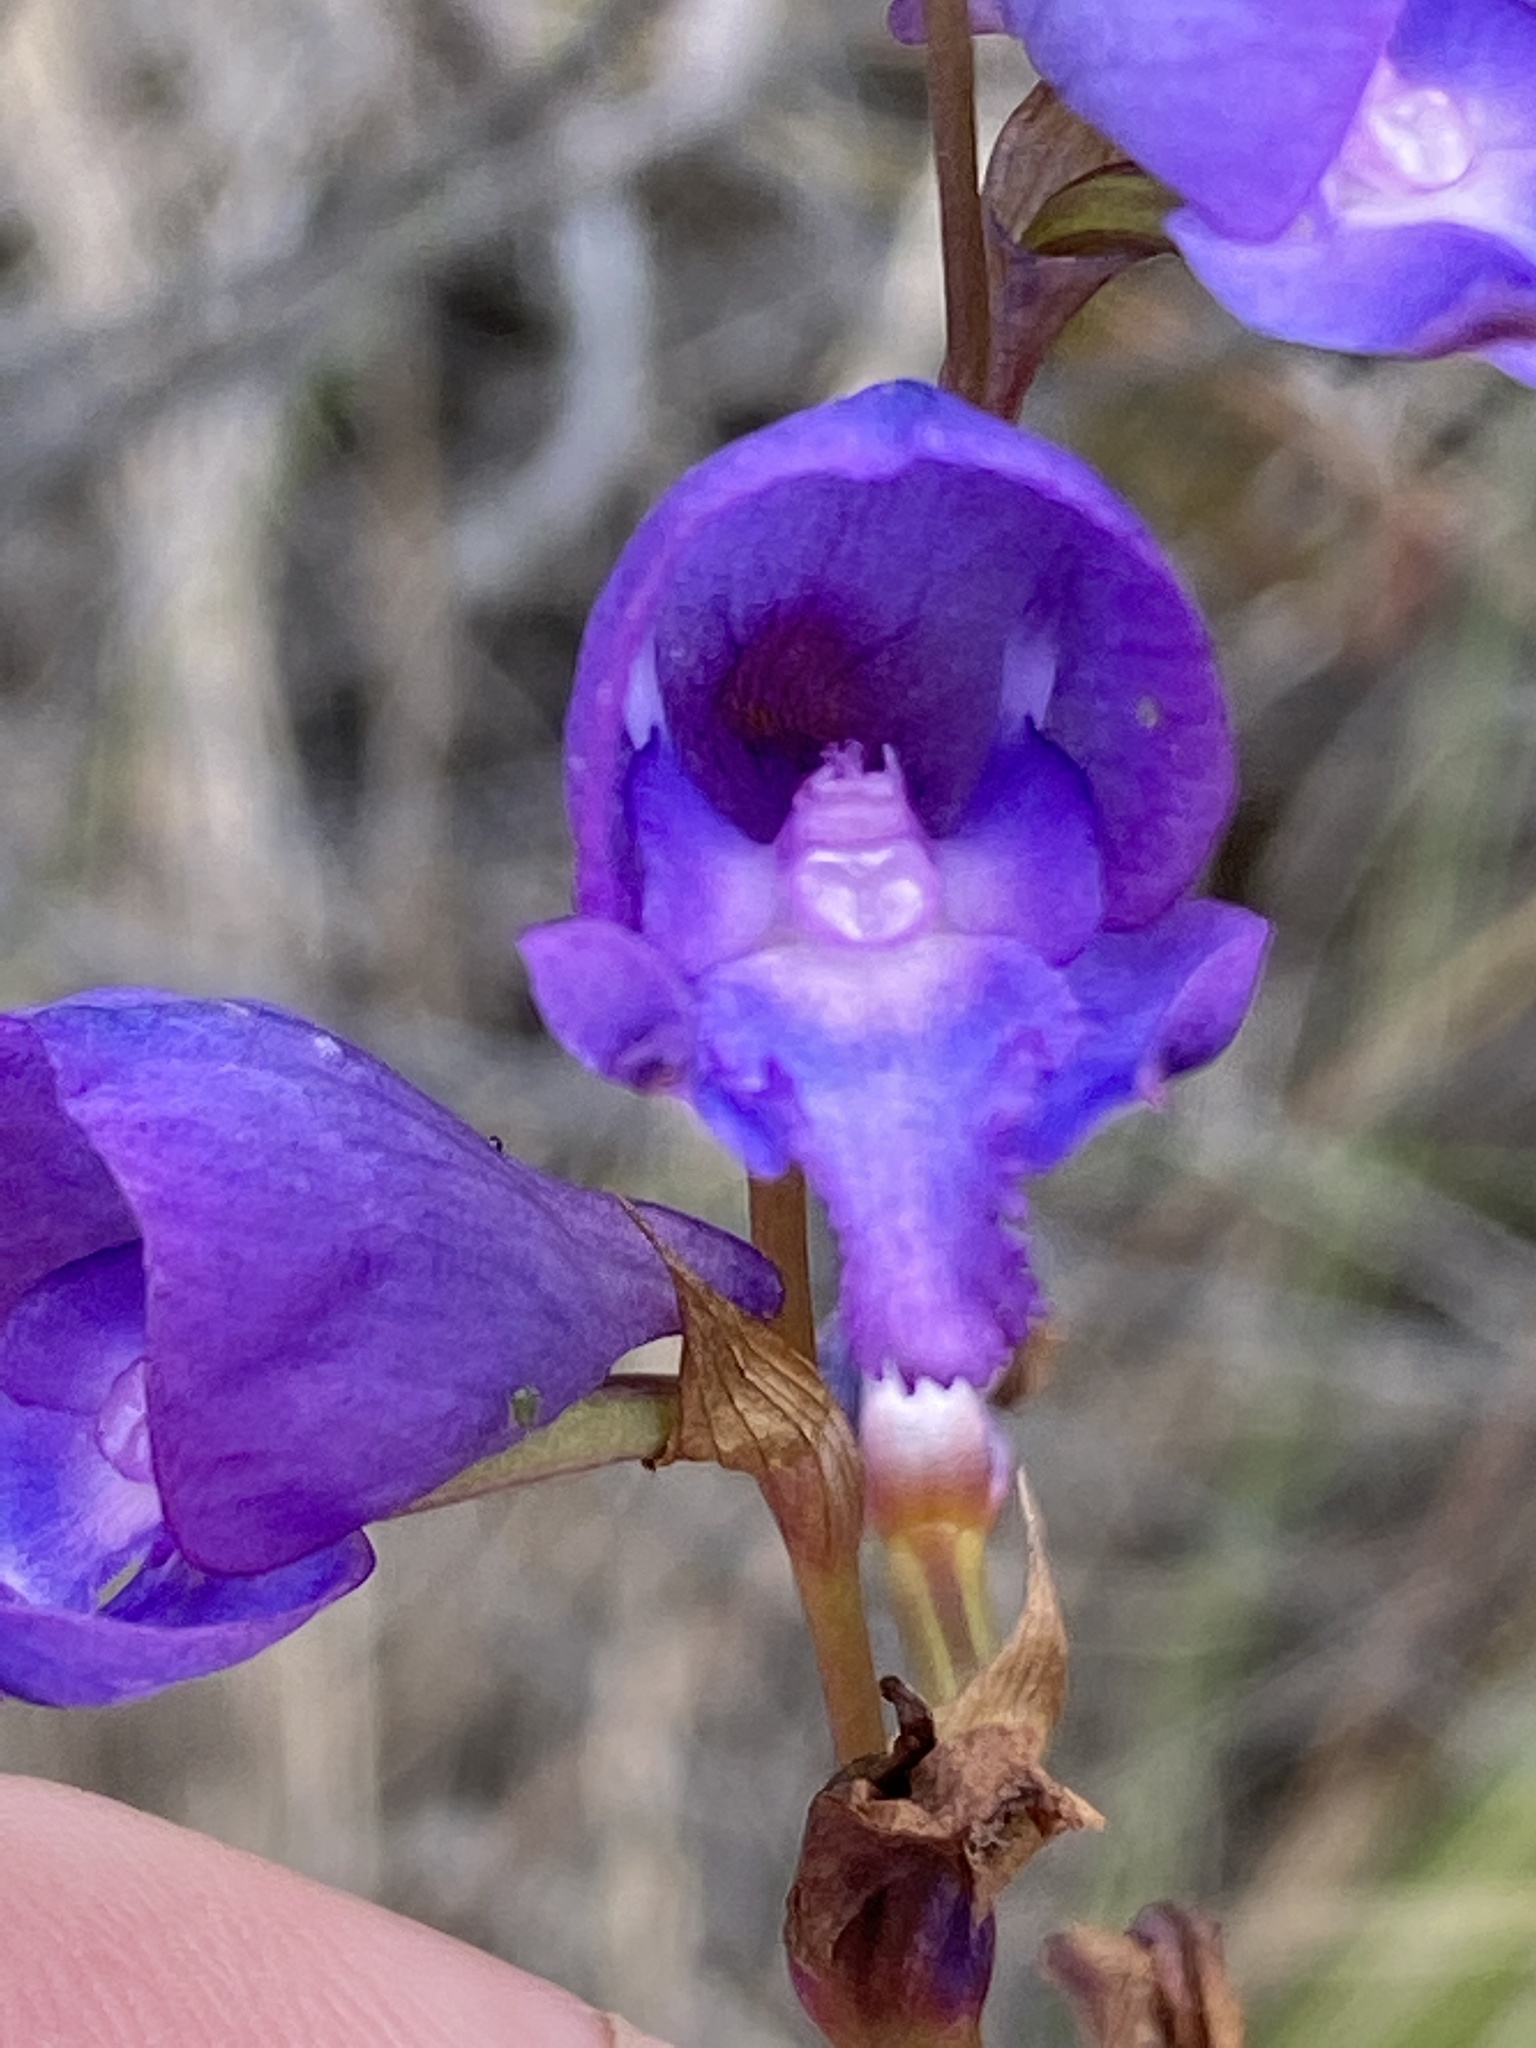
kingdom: Plantae
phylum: Tracheophyta
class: Liliopsida
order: Asparagales
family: Orchidaceae
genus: Disa
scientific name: Disa hians
